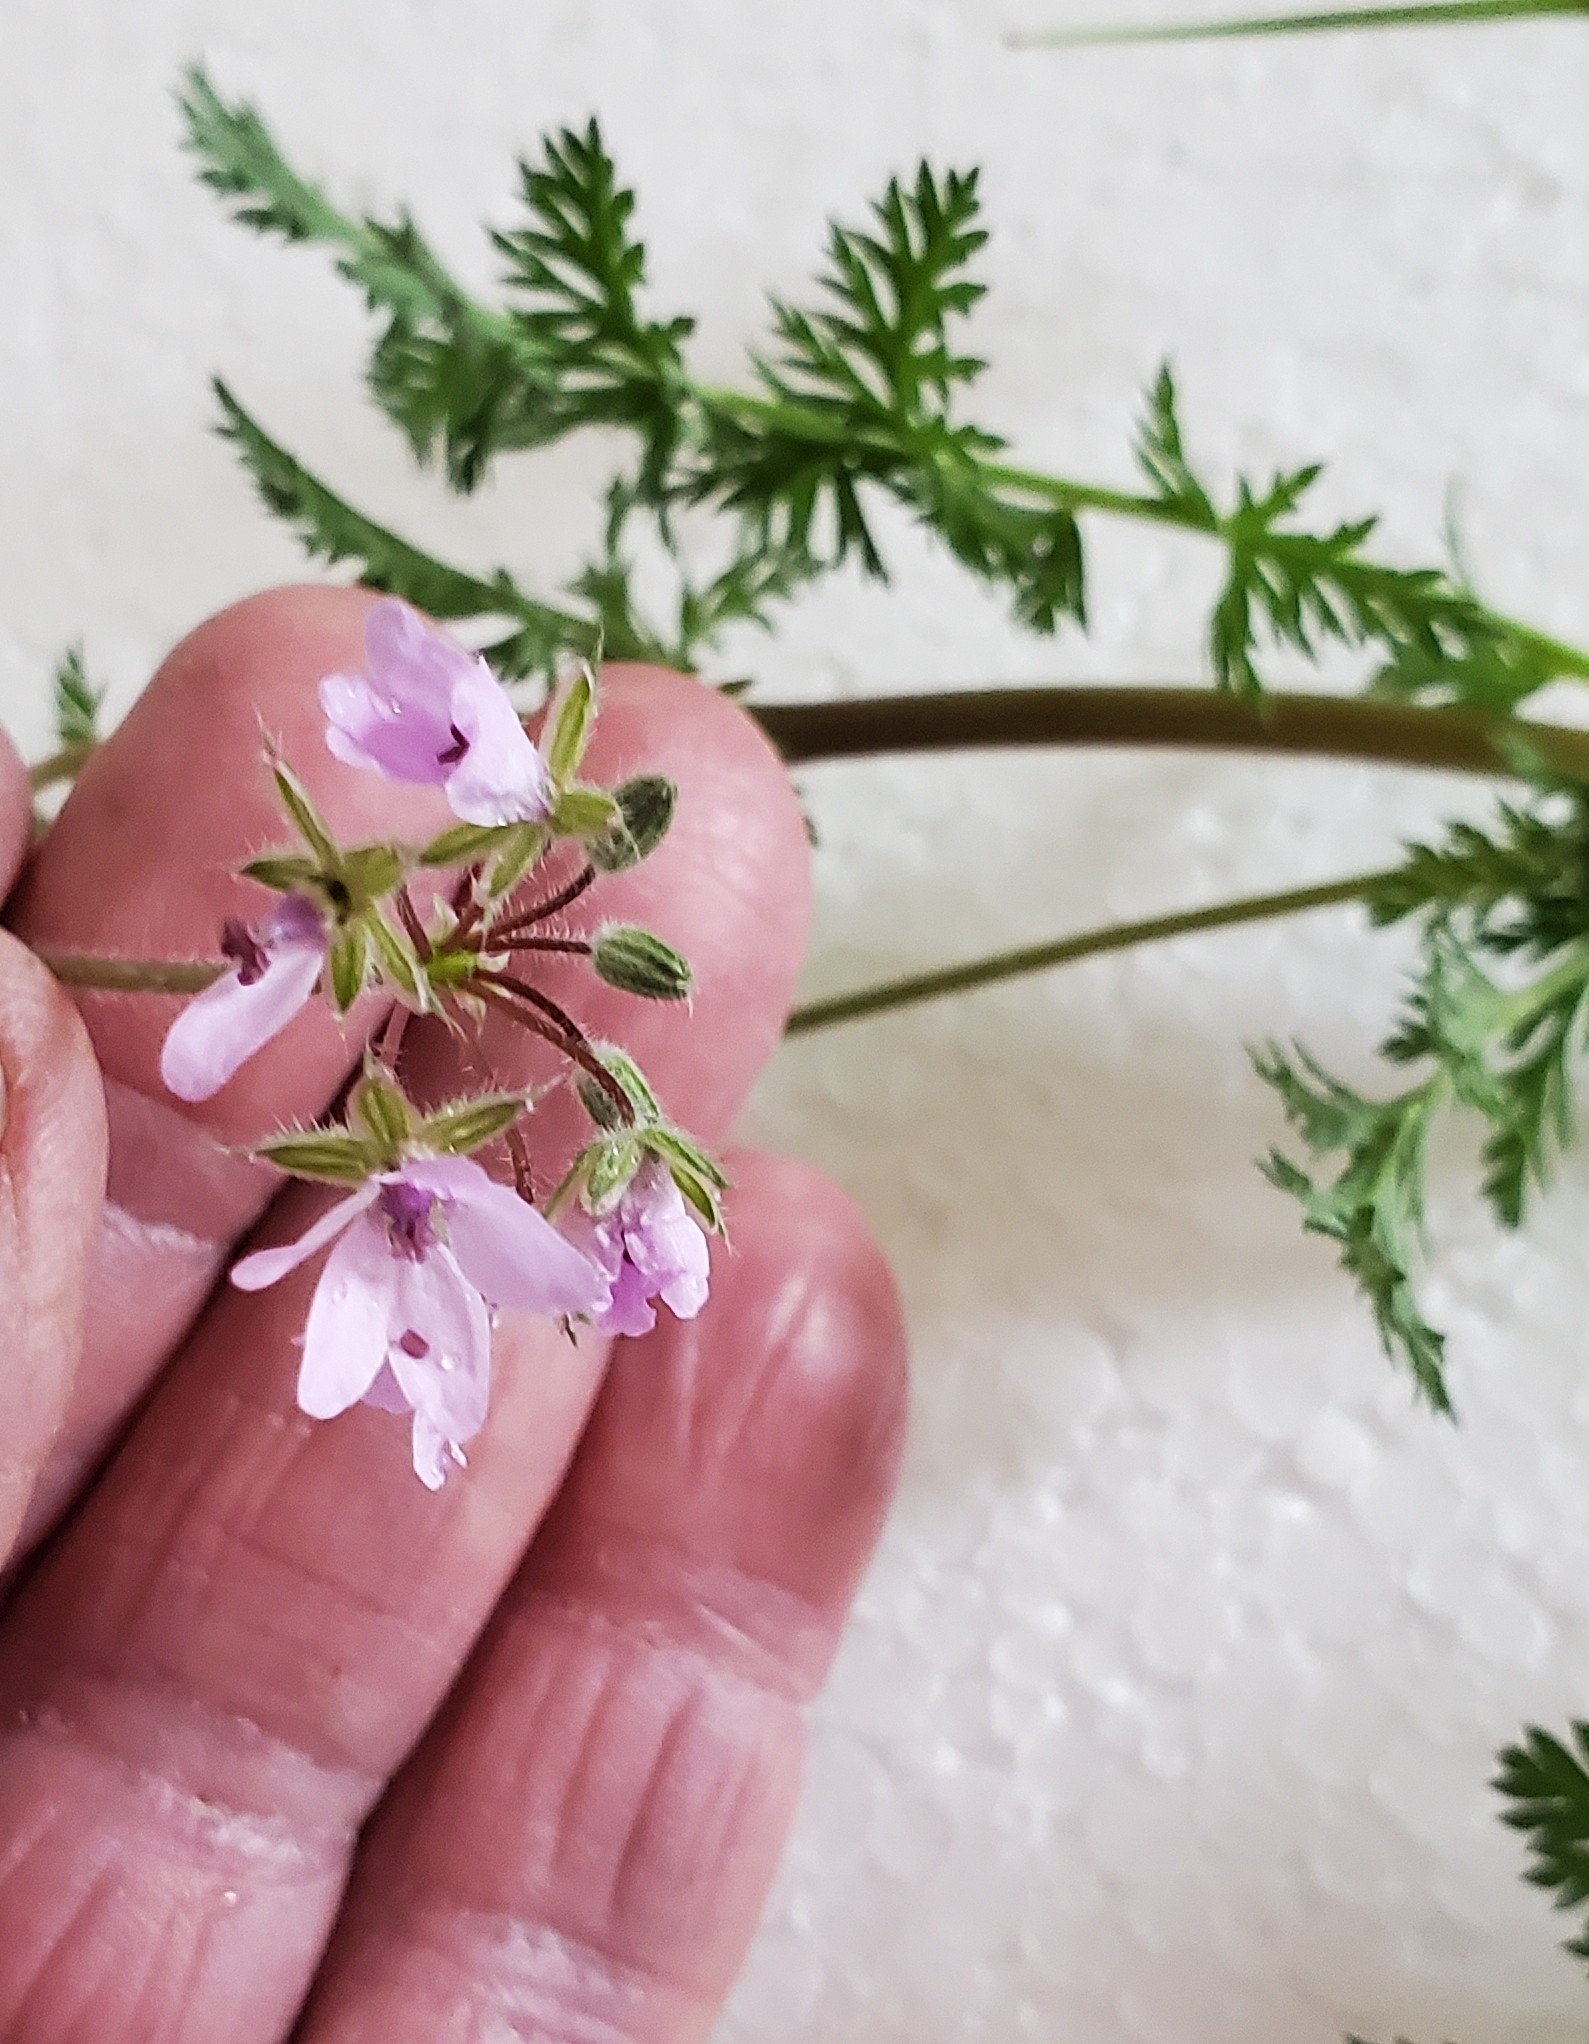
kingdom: Plantae
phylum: Tracheophyta
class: Magnoliopsida
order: Geraniales
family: Geraniaceae
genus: Erodium
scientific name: Erodium cicutarium
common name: Common stork's-bill
